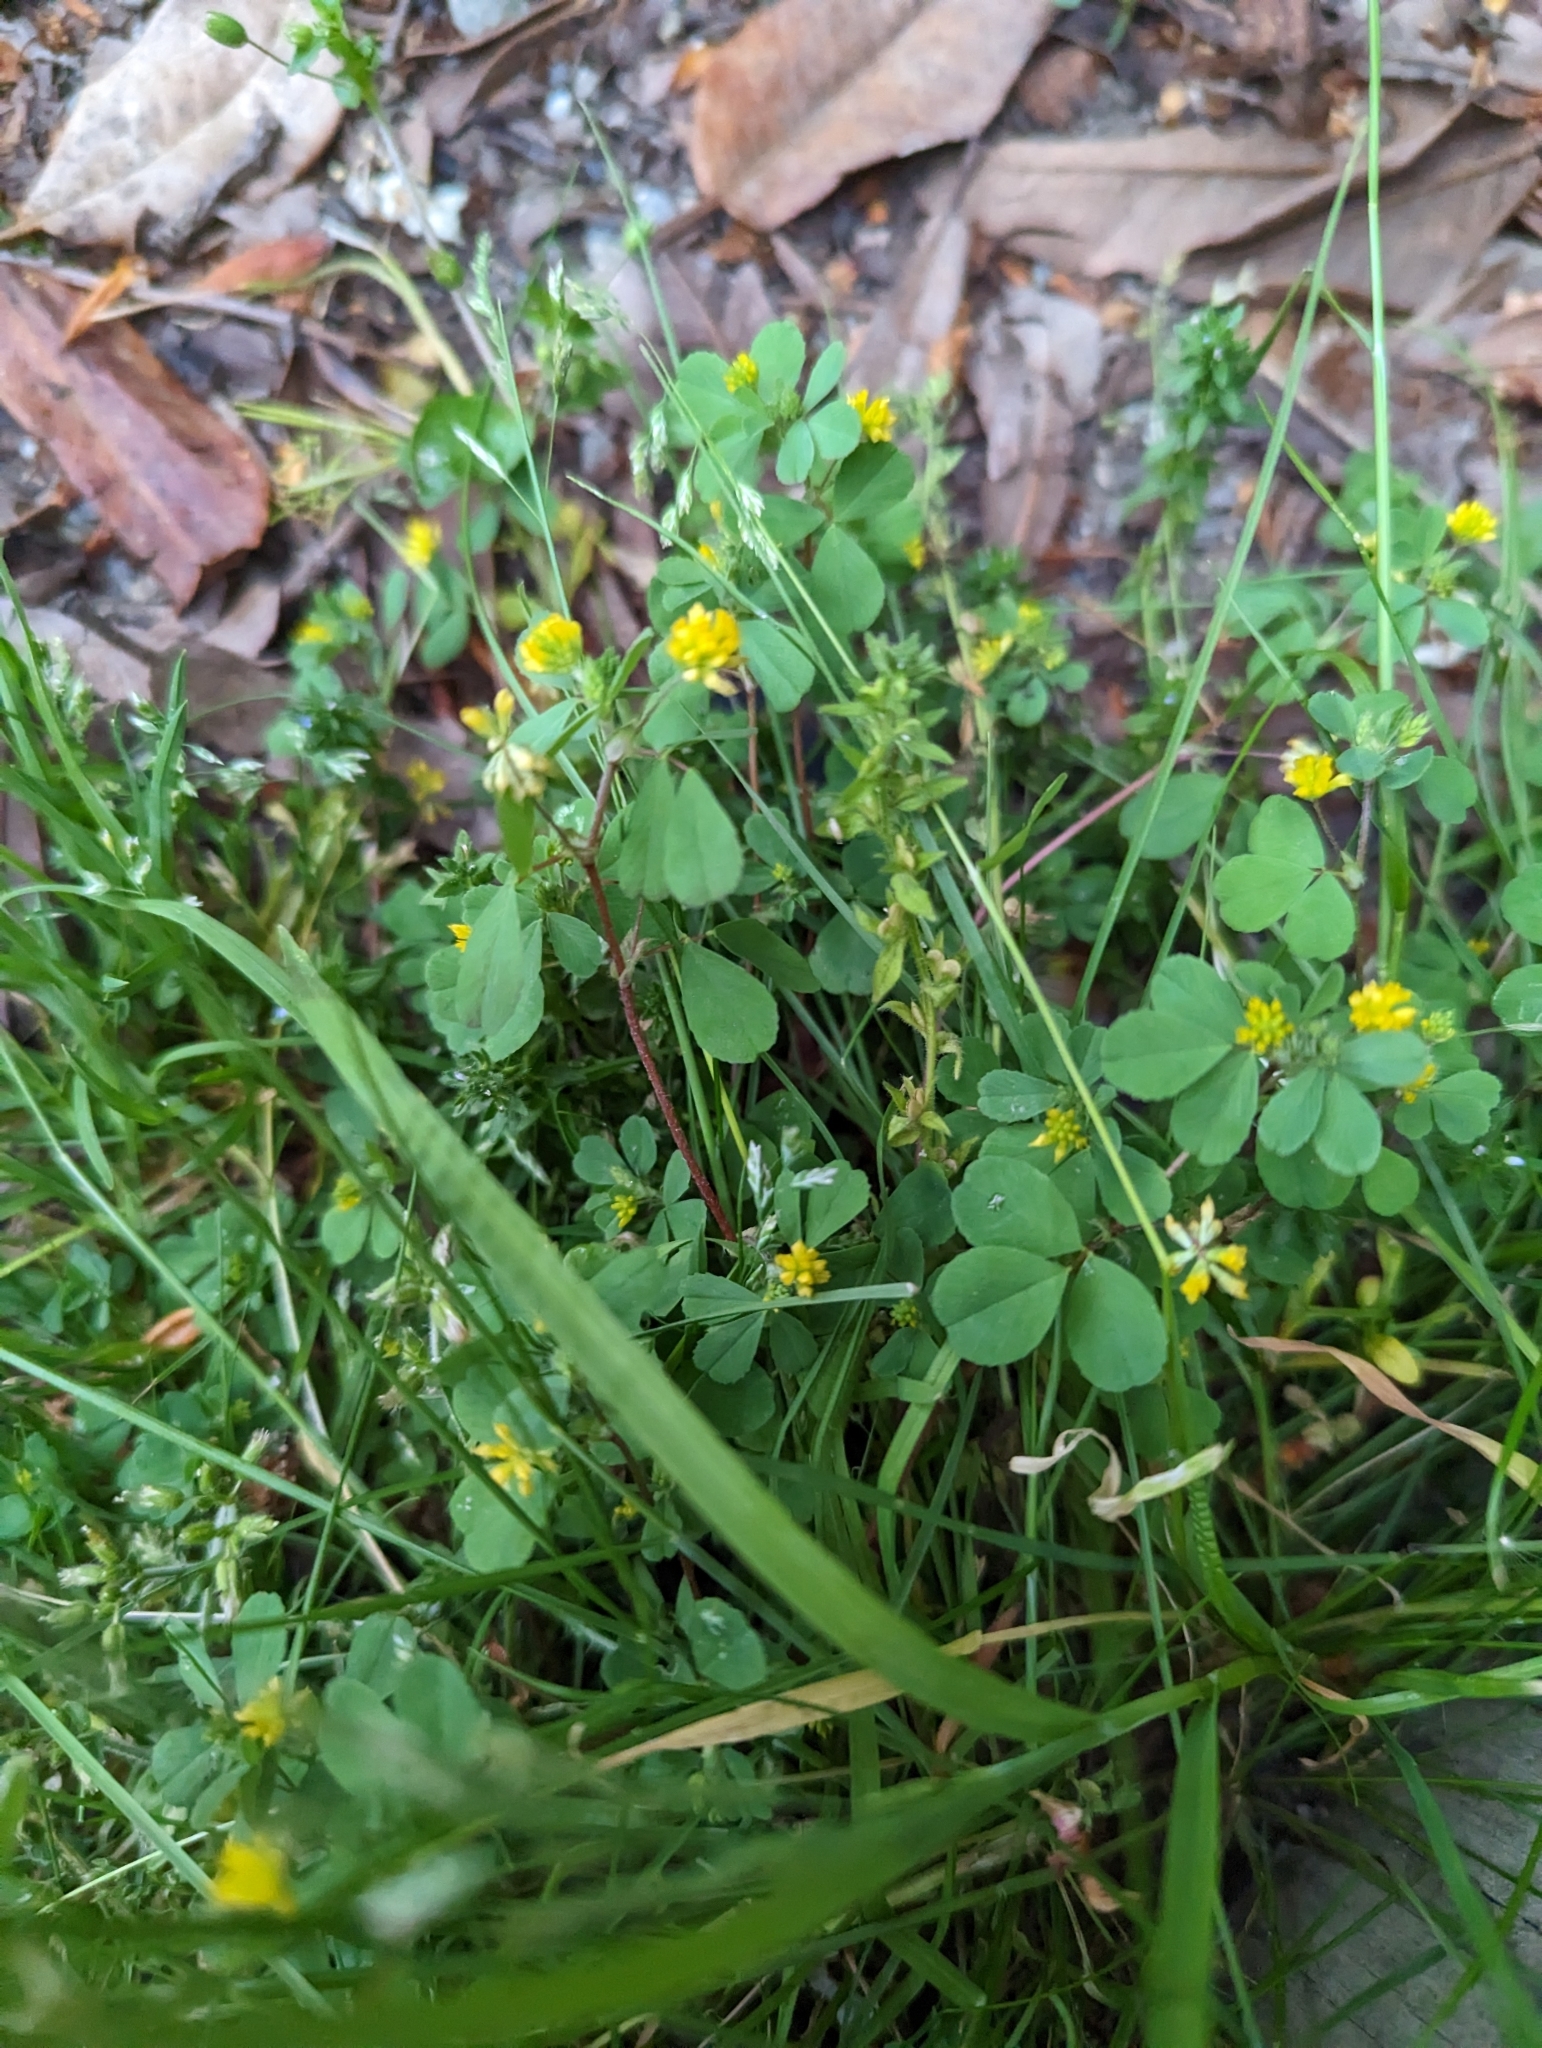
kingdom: Plantae
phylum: Tracheophyta
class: Magnoliopsida
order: Fabales
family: Fabaceae
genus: Trifolium
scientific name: Trifolium dubium
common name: Suckling clover
